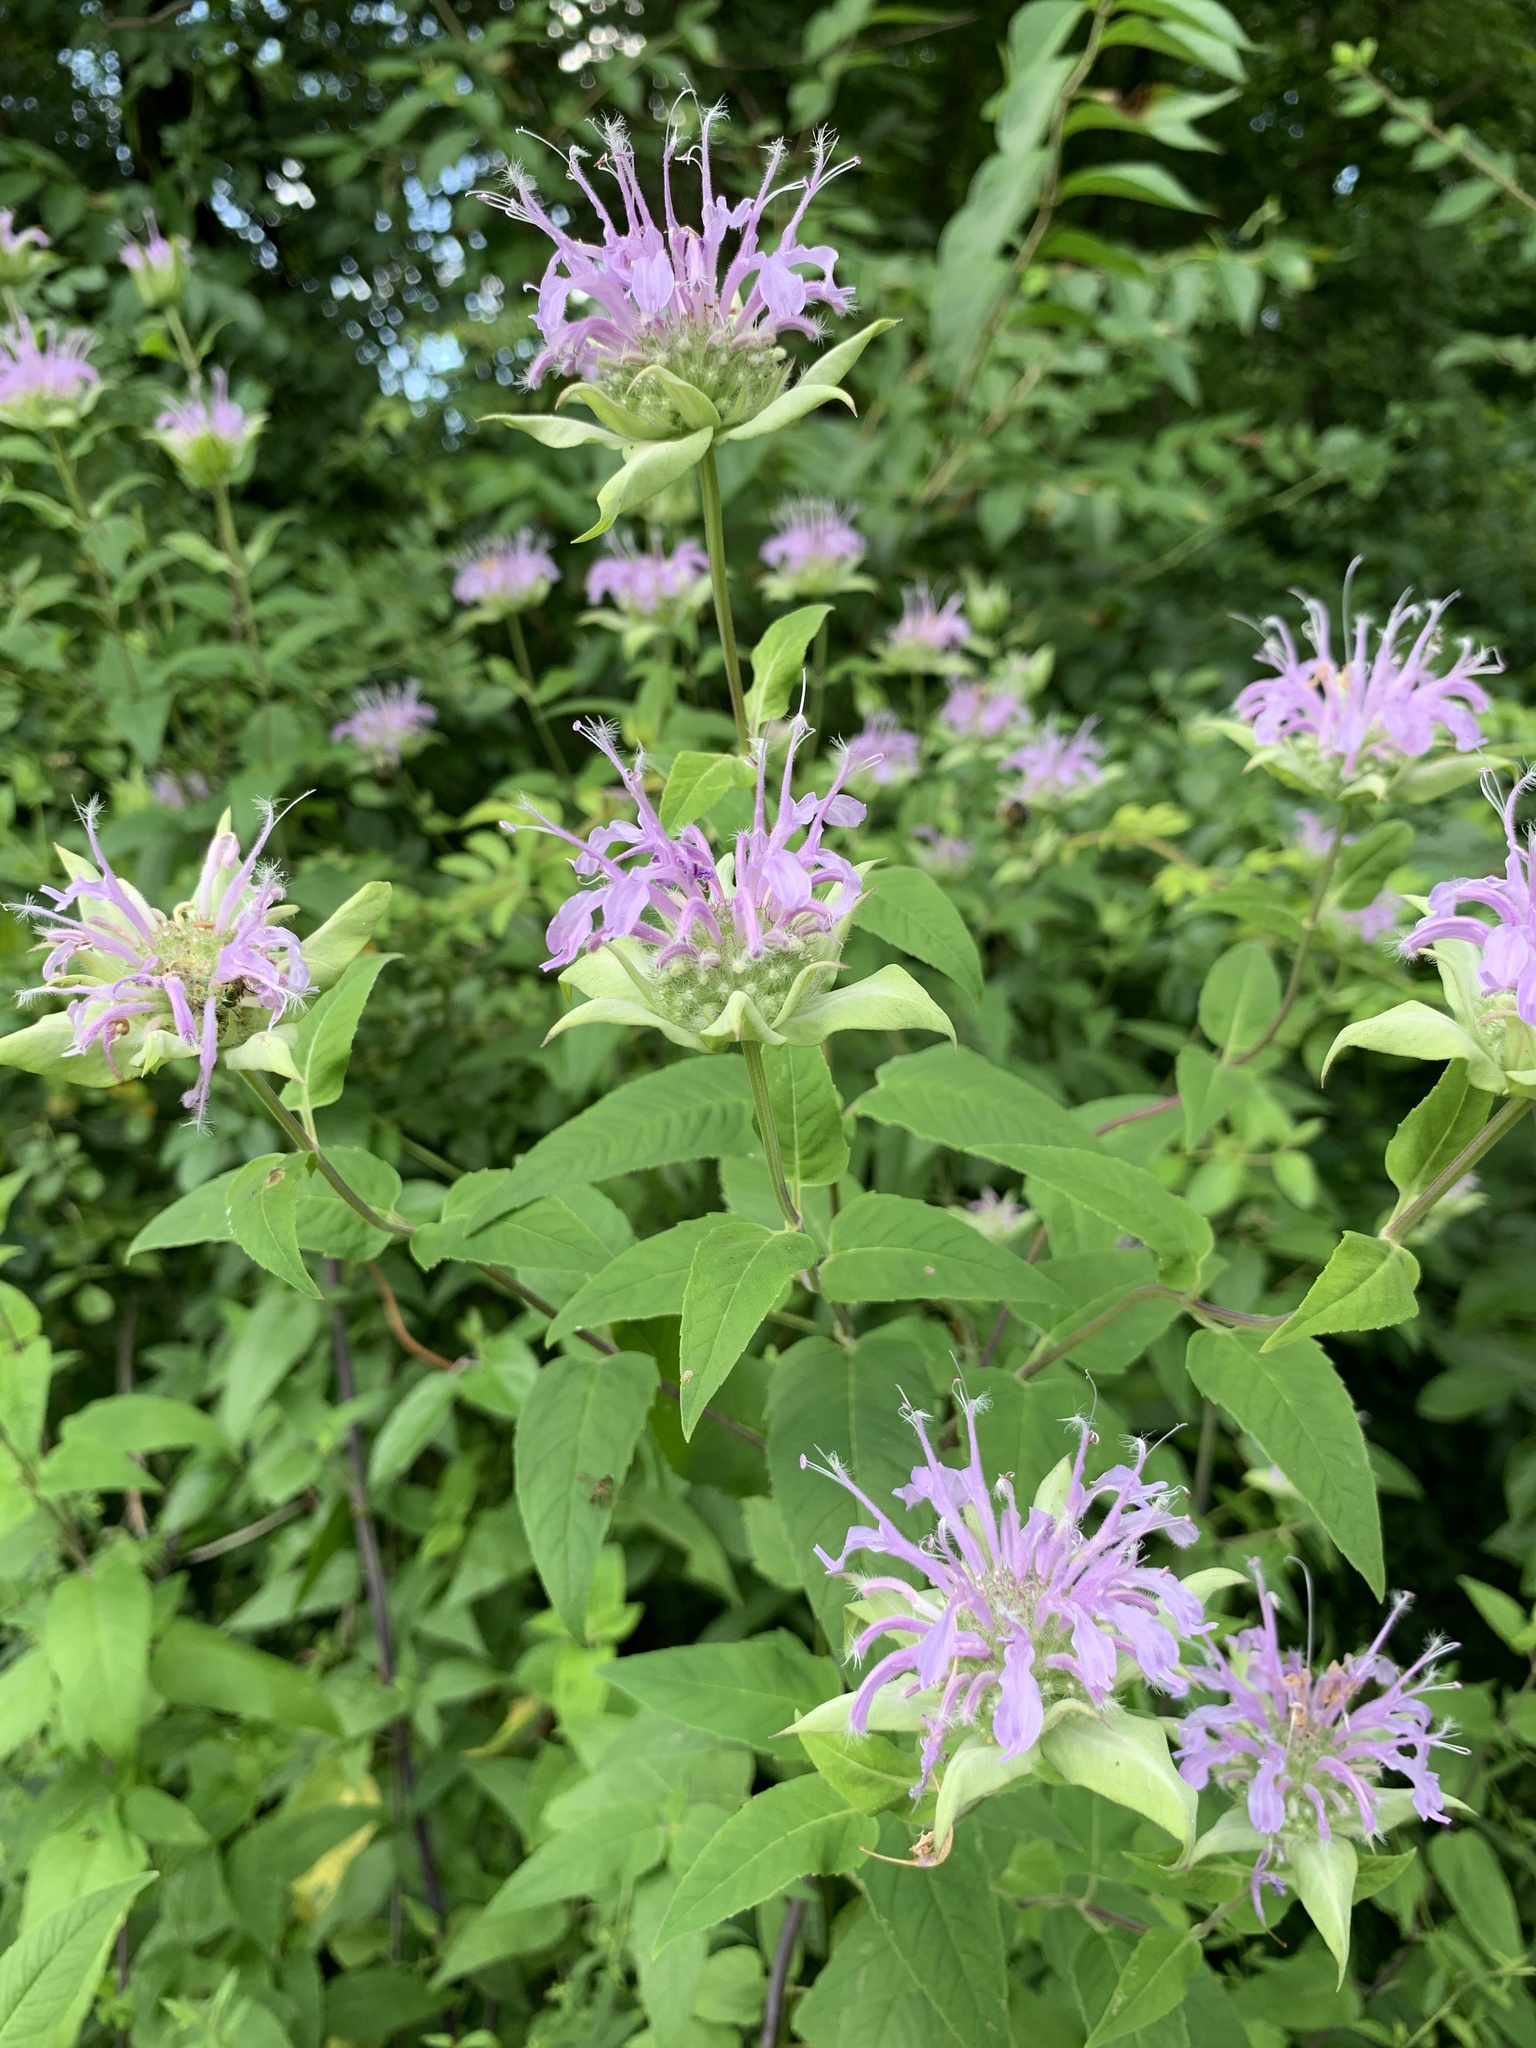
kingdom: Plantae
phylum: Tracheophyta
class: Magnoliopsida
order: Lamiales
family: Lamiaceae
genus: Monarda
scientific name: Monarda fistulosa
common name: Purple beebalm
